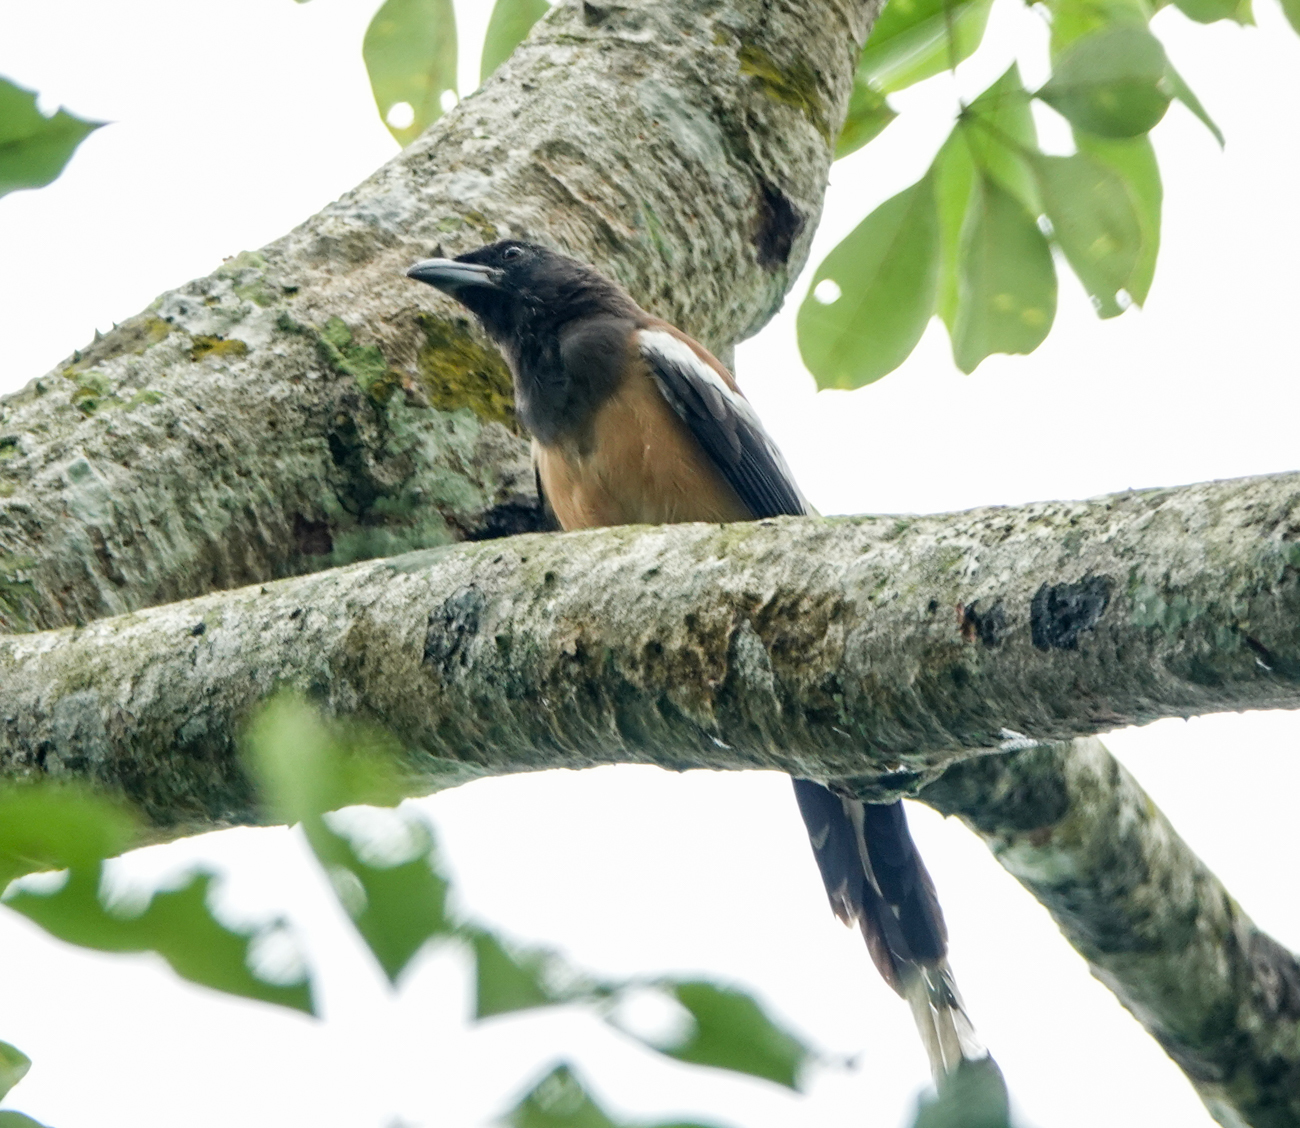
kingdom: Animalia
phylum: Chordata
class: Aves
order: Passeriformes
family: Corvidae
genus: Dendrocitta
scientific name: Dendrocitta vagabunda
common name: Rufous treepie
